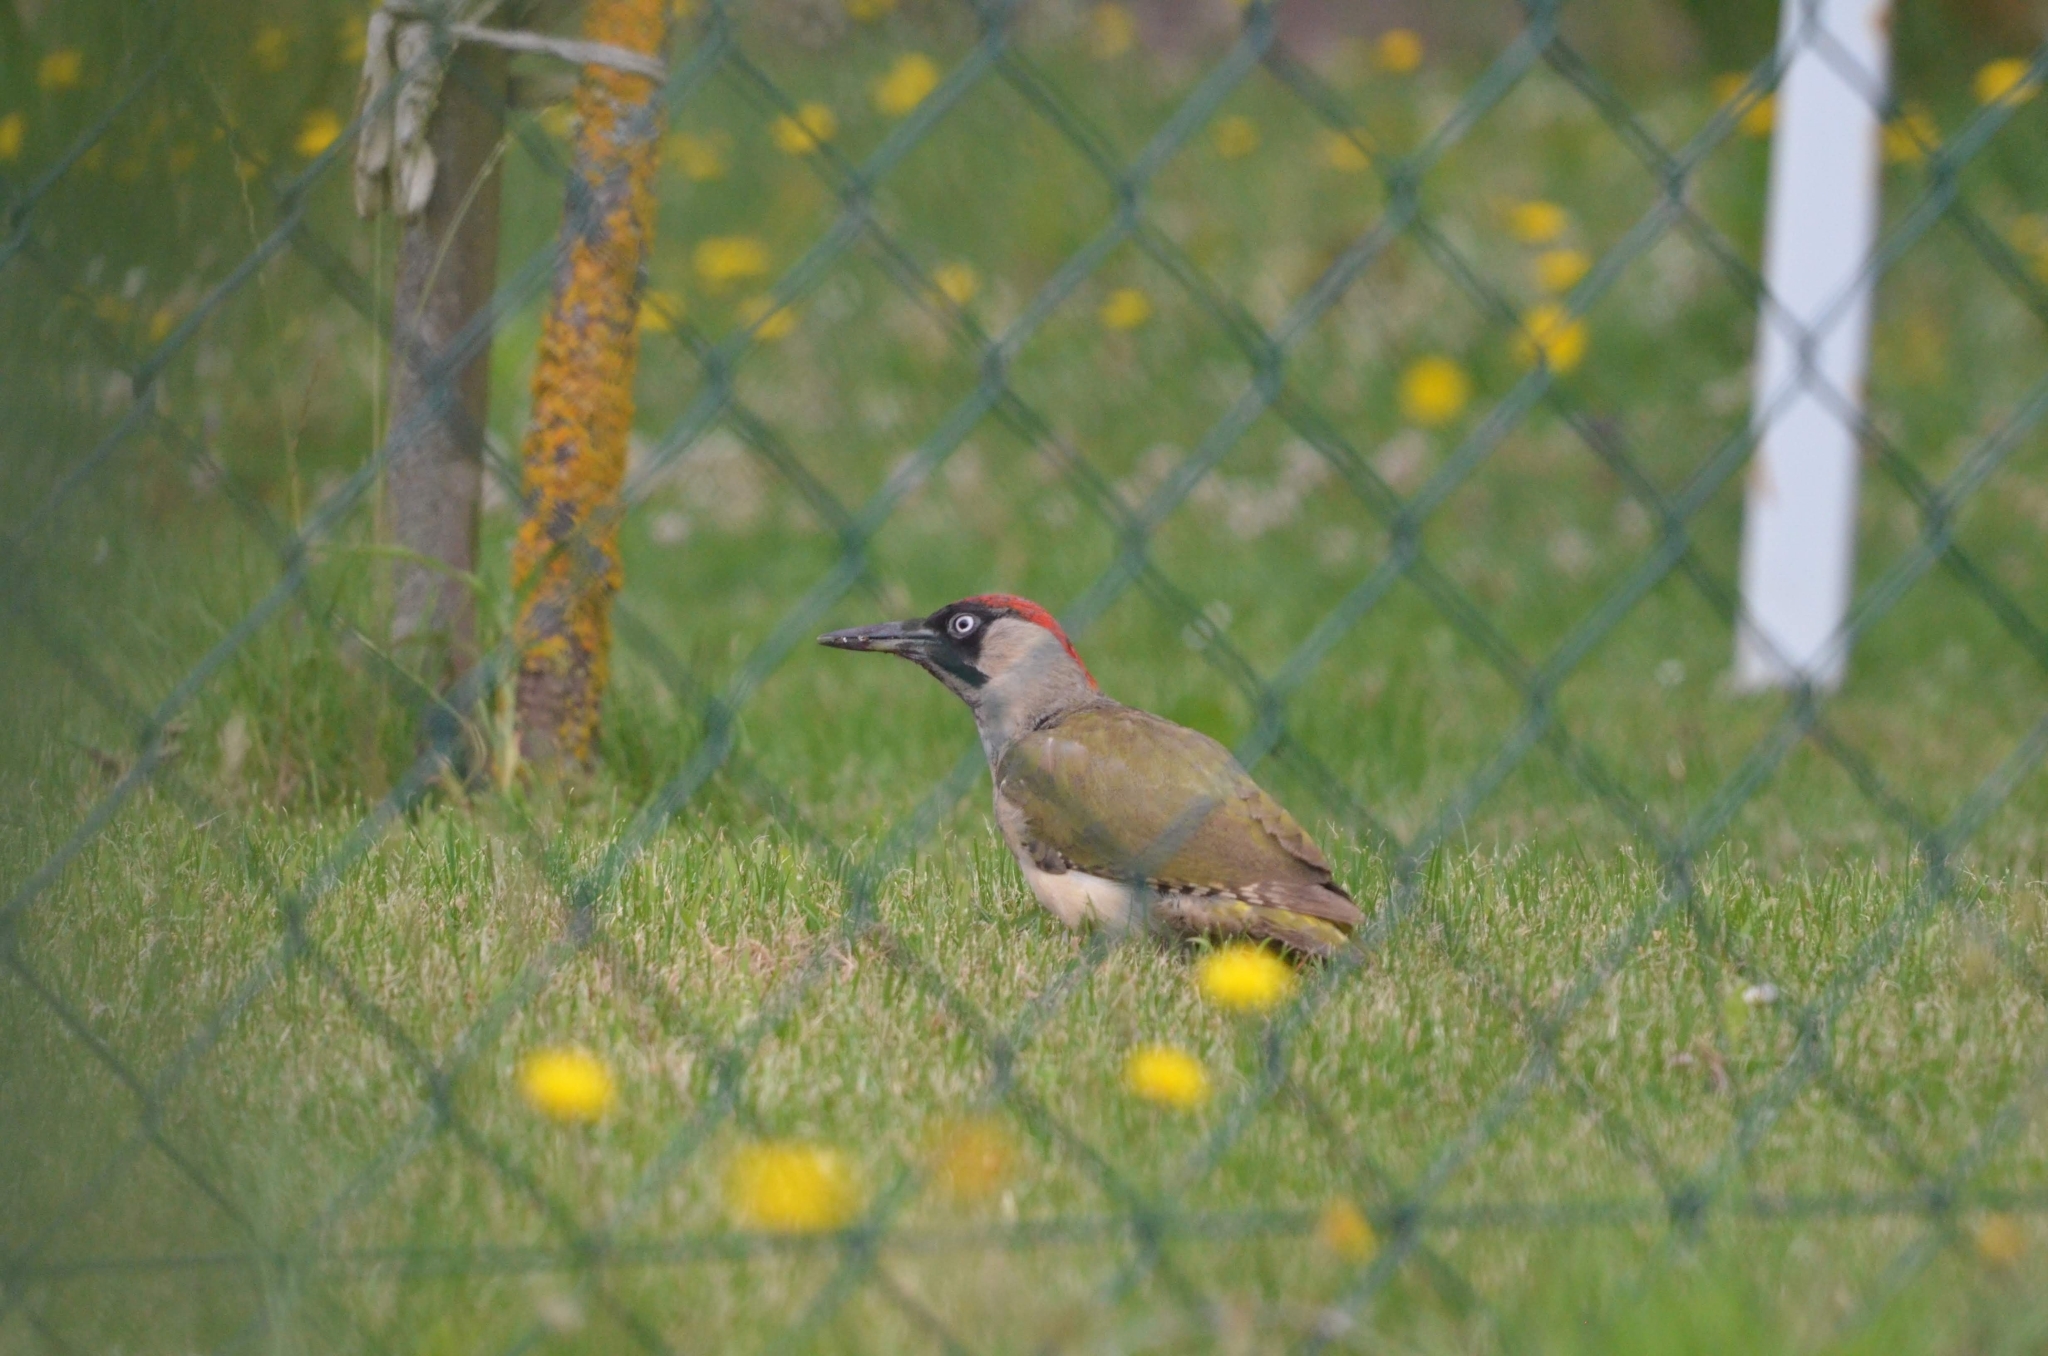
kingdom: Animalia
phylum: Chordata
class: Aves
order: Piciformes
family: Picidae
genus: Picus
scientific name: Picus viridis
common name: European green woodpecker
